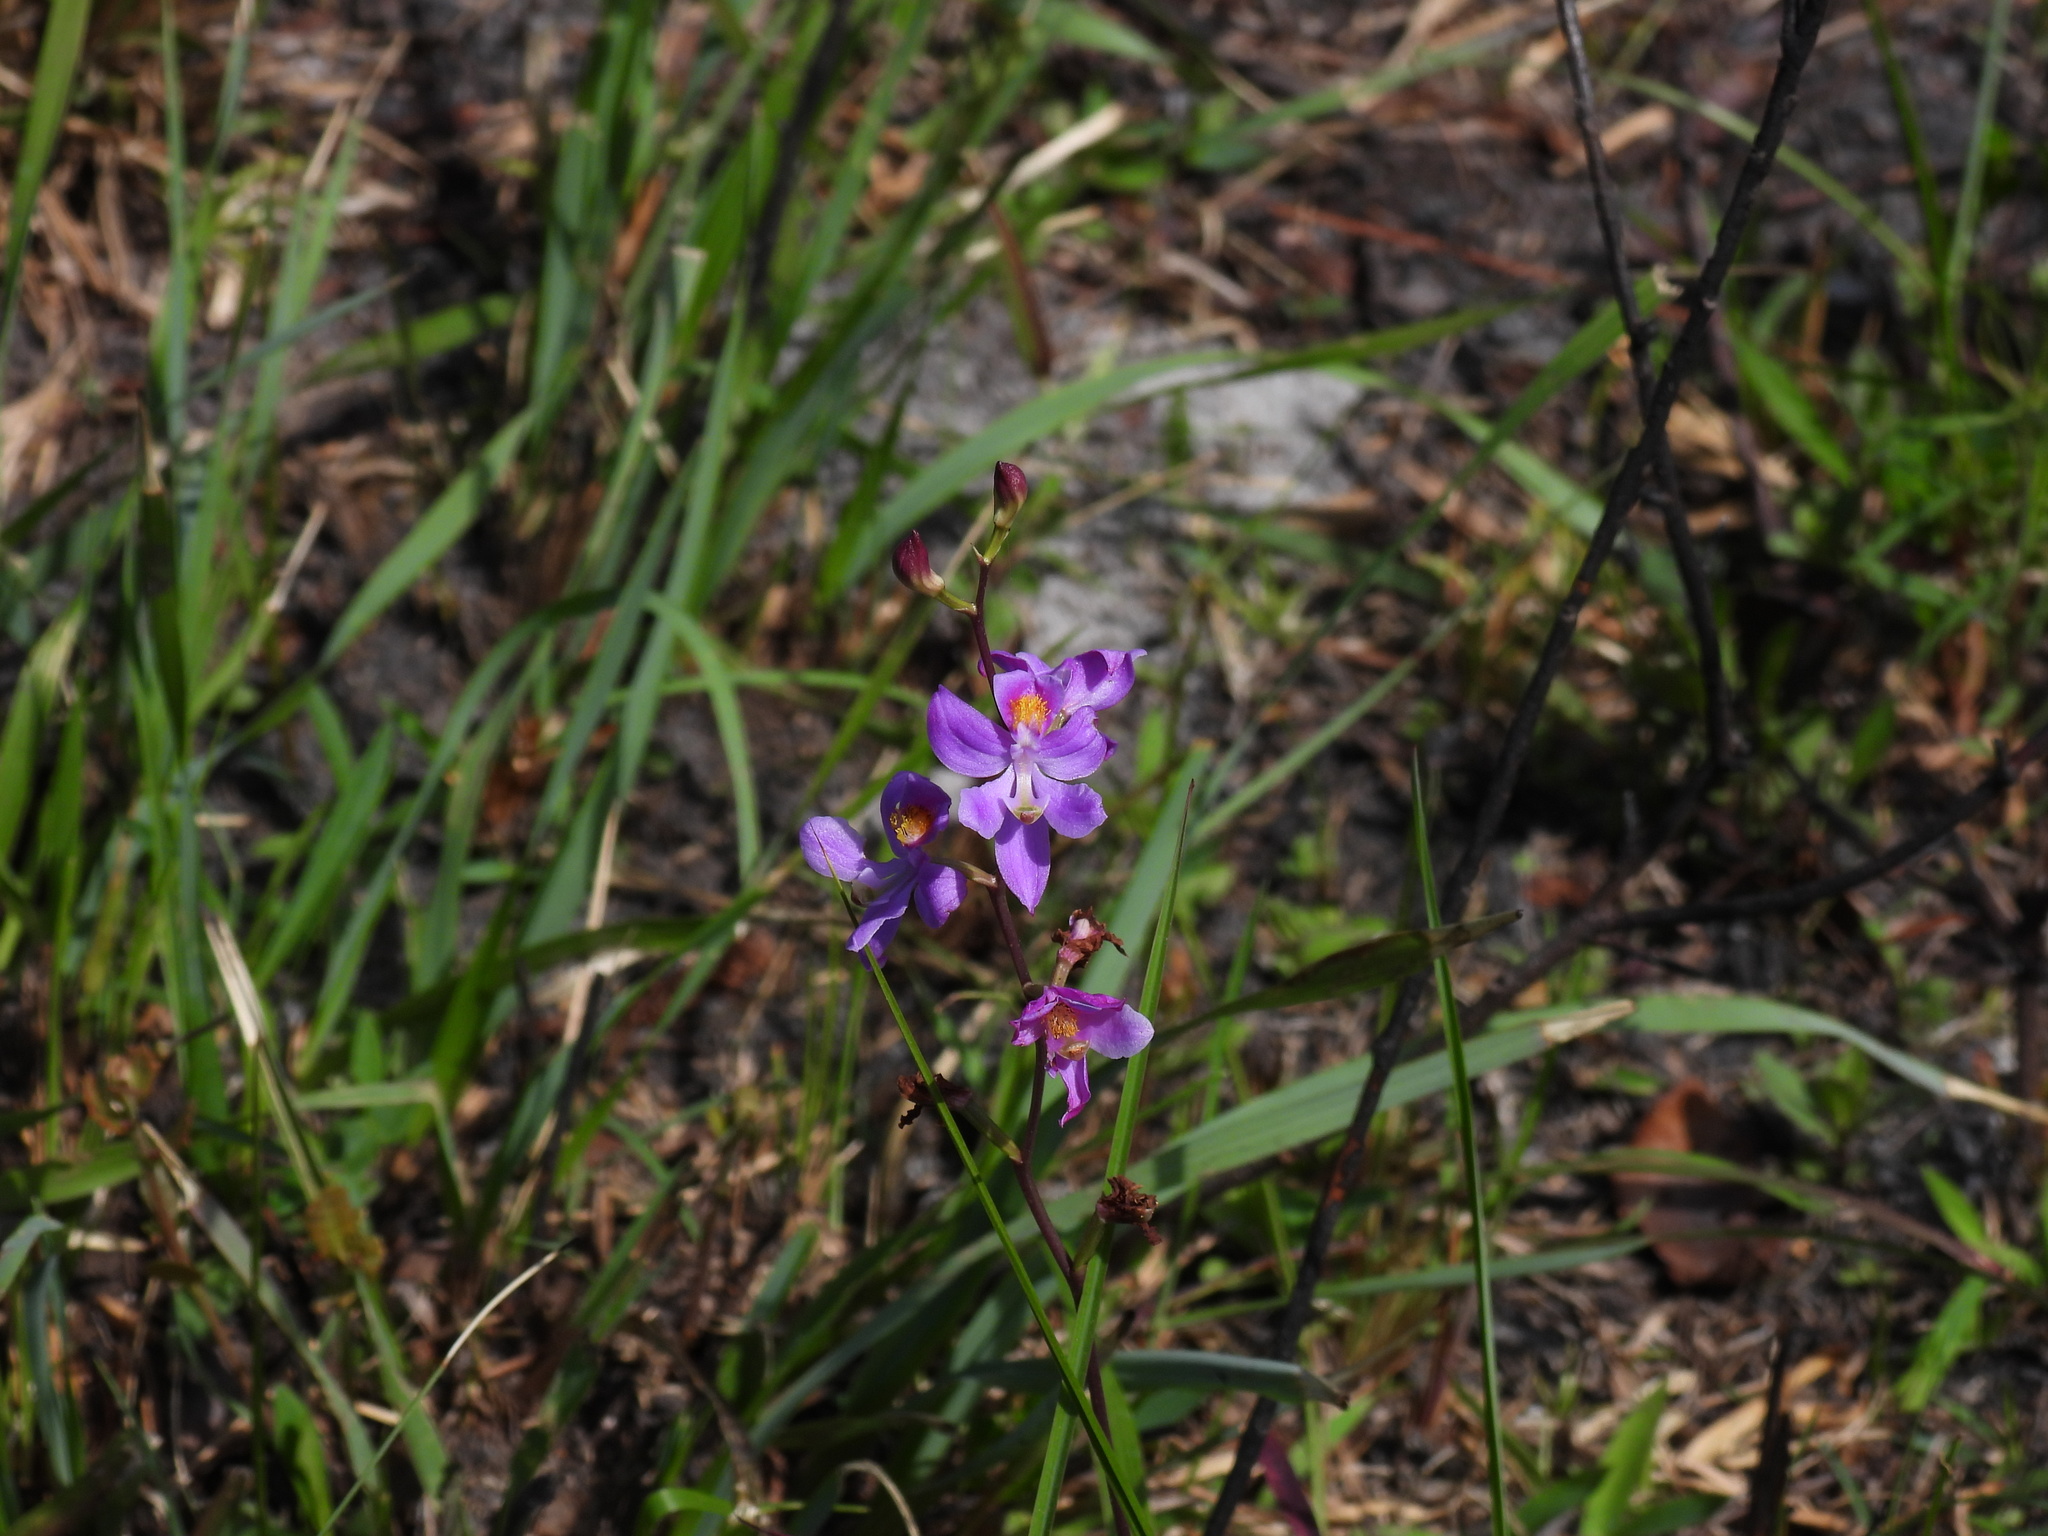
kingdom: Plantae
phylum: Tracheophyta
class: Liliopsida
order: Asparagales
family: Orchidaceae
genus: Calopogon
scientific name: Calopogon multiflorus
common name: Many-flowered grass-pink orchid
